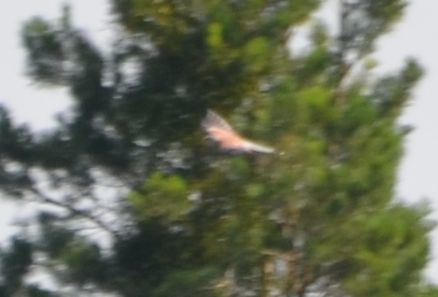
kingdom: Animalia
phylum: Chordata
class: Aves
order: Falconiformes
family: Falconidae
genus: Falco
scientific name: Falco tinnunculus
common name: Common kestrel
